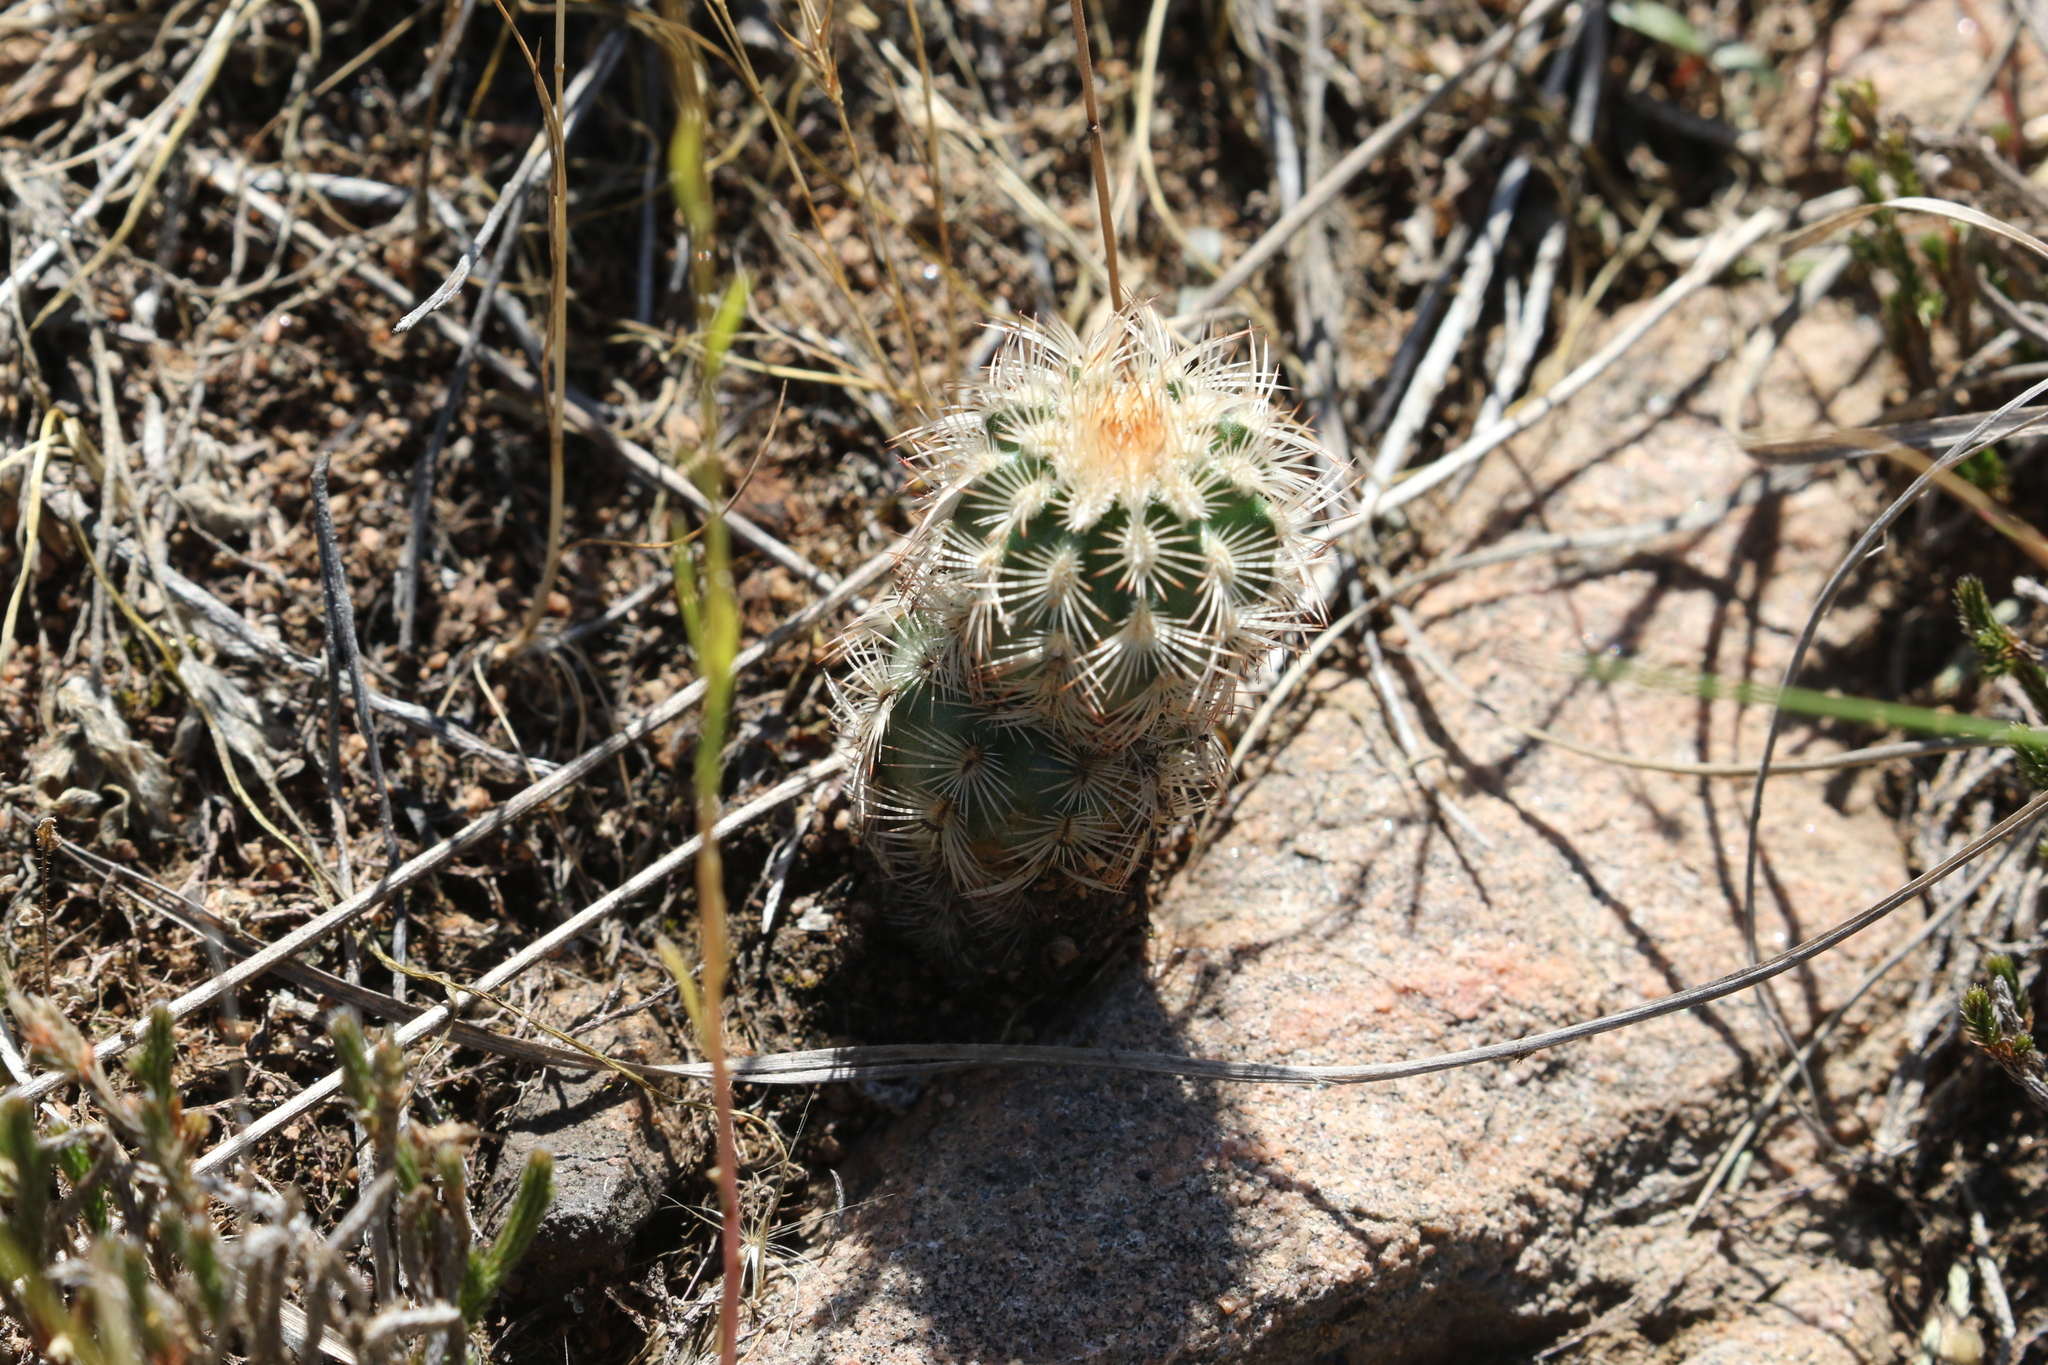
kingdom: Plantae
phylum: Tracheophyta
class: Magnoliopsida
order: Caryophyllales
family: Cactaceae
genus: Echinocereus
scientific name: Echinocereus reichenbachii
